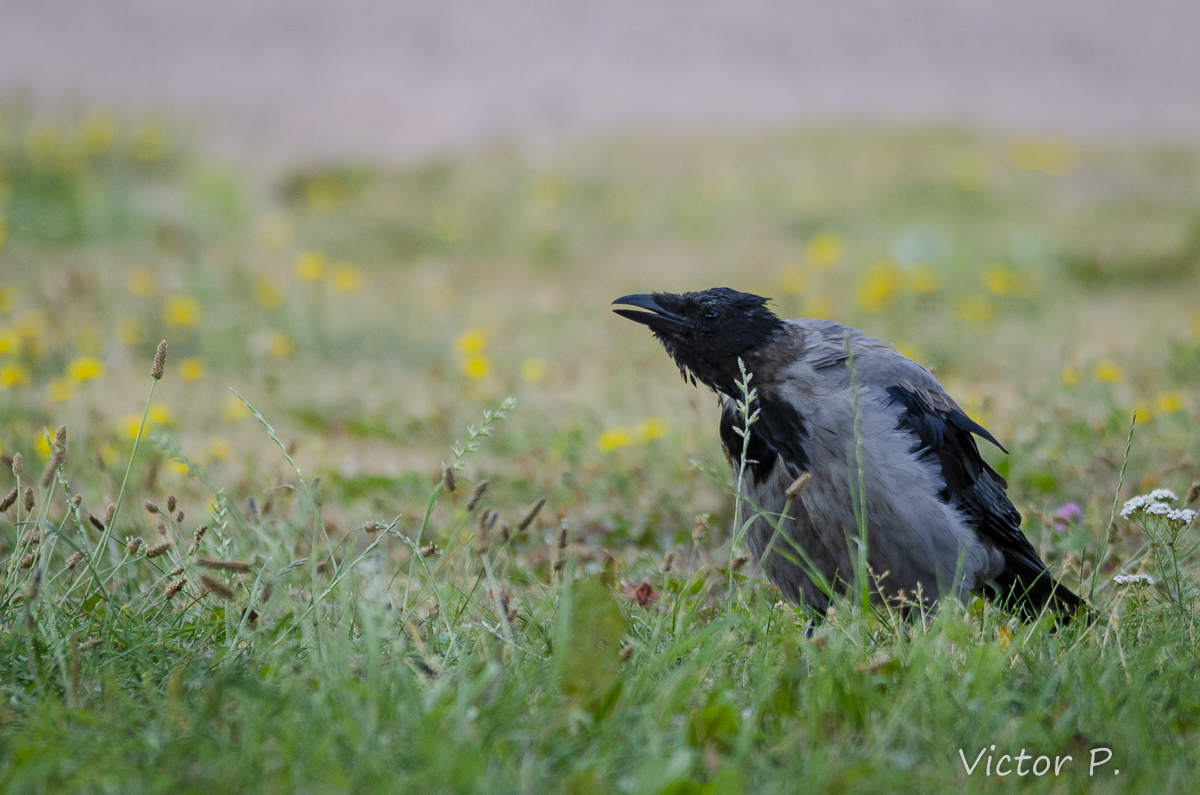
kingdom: Animalia
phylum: Chordata
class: Aves
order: Passeriformes
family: Corvidae
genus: Corvus
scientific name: Corvus cornix
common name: Hooded crow
